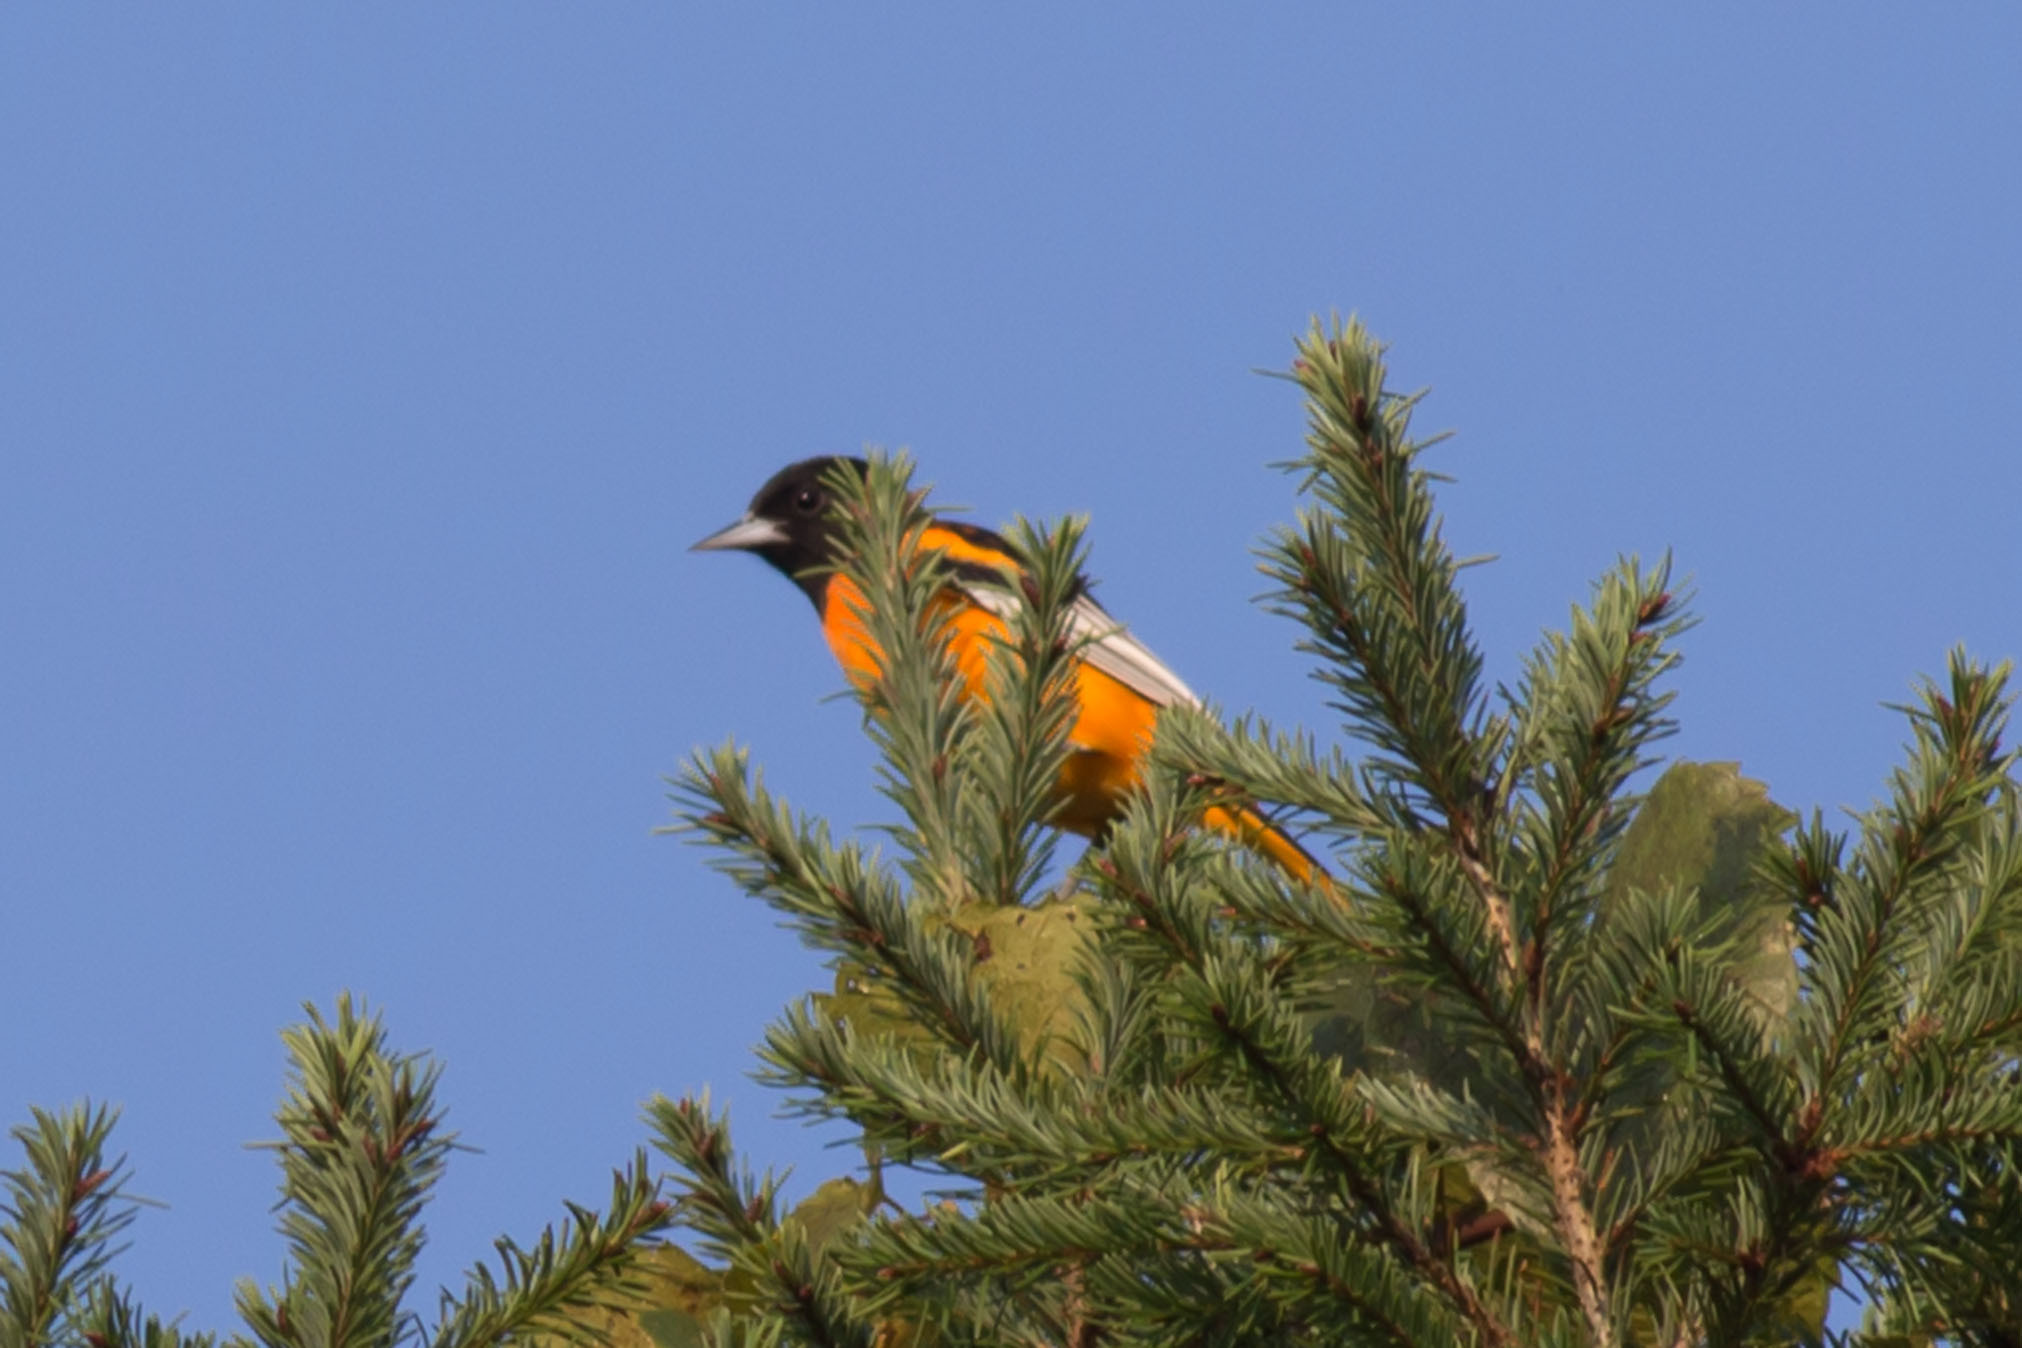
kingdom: Animalia
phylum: Chordata
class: Aves
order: Passeriformes
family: Icteridae
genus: Icterus
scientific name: Icterus galbula
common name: Baltimore oriole
